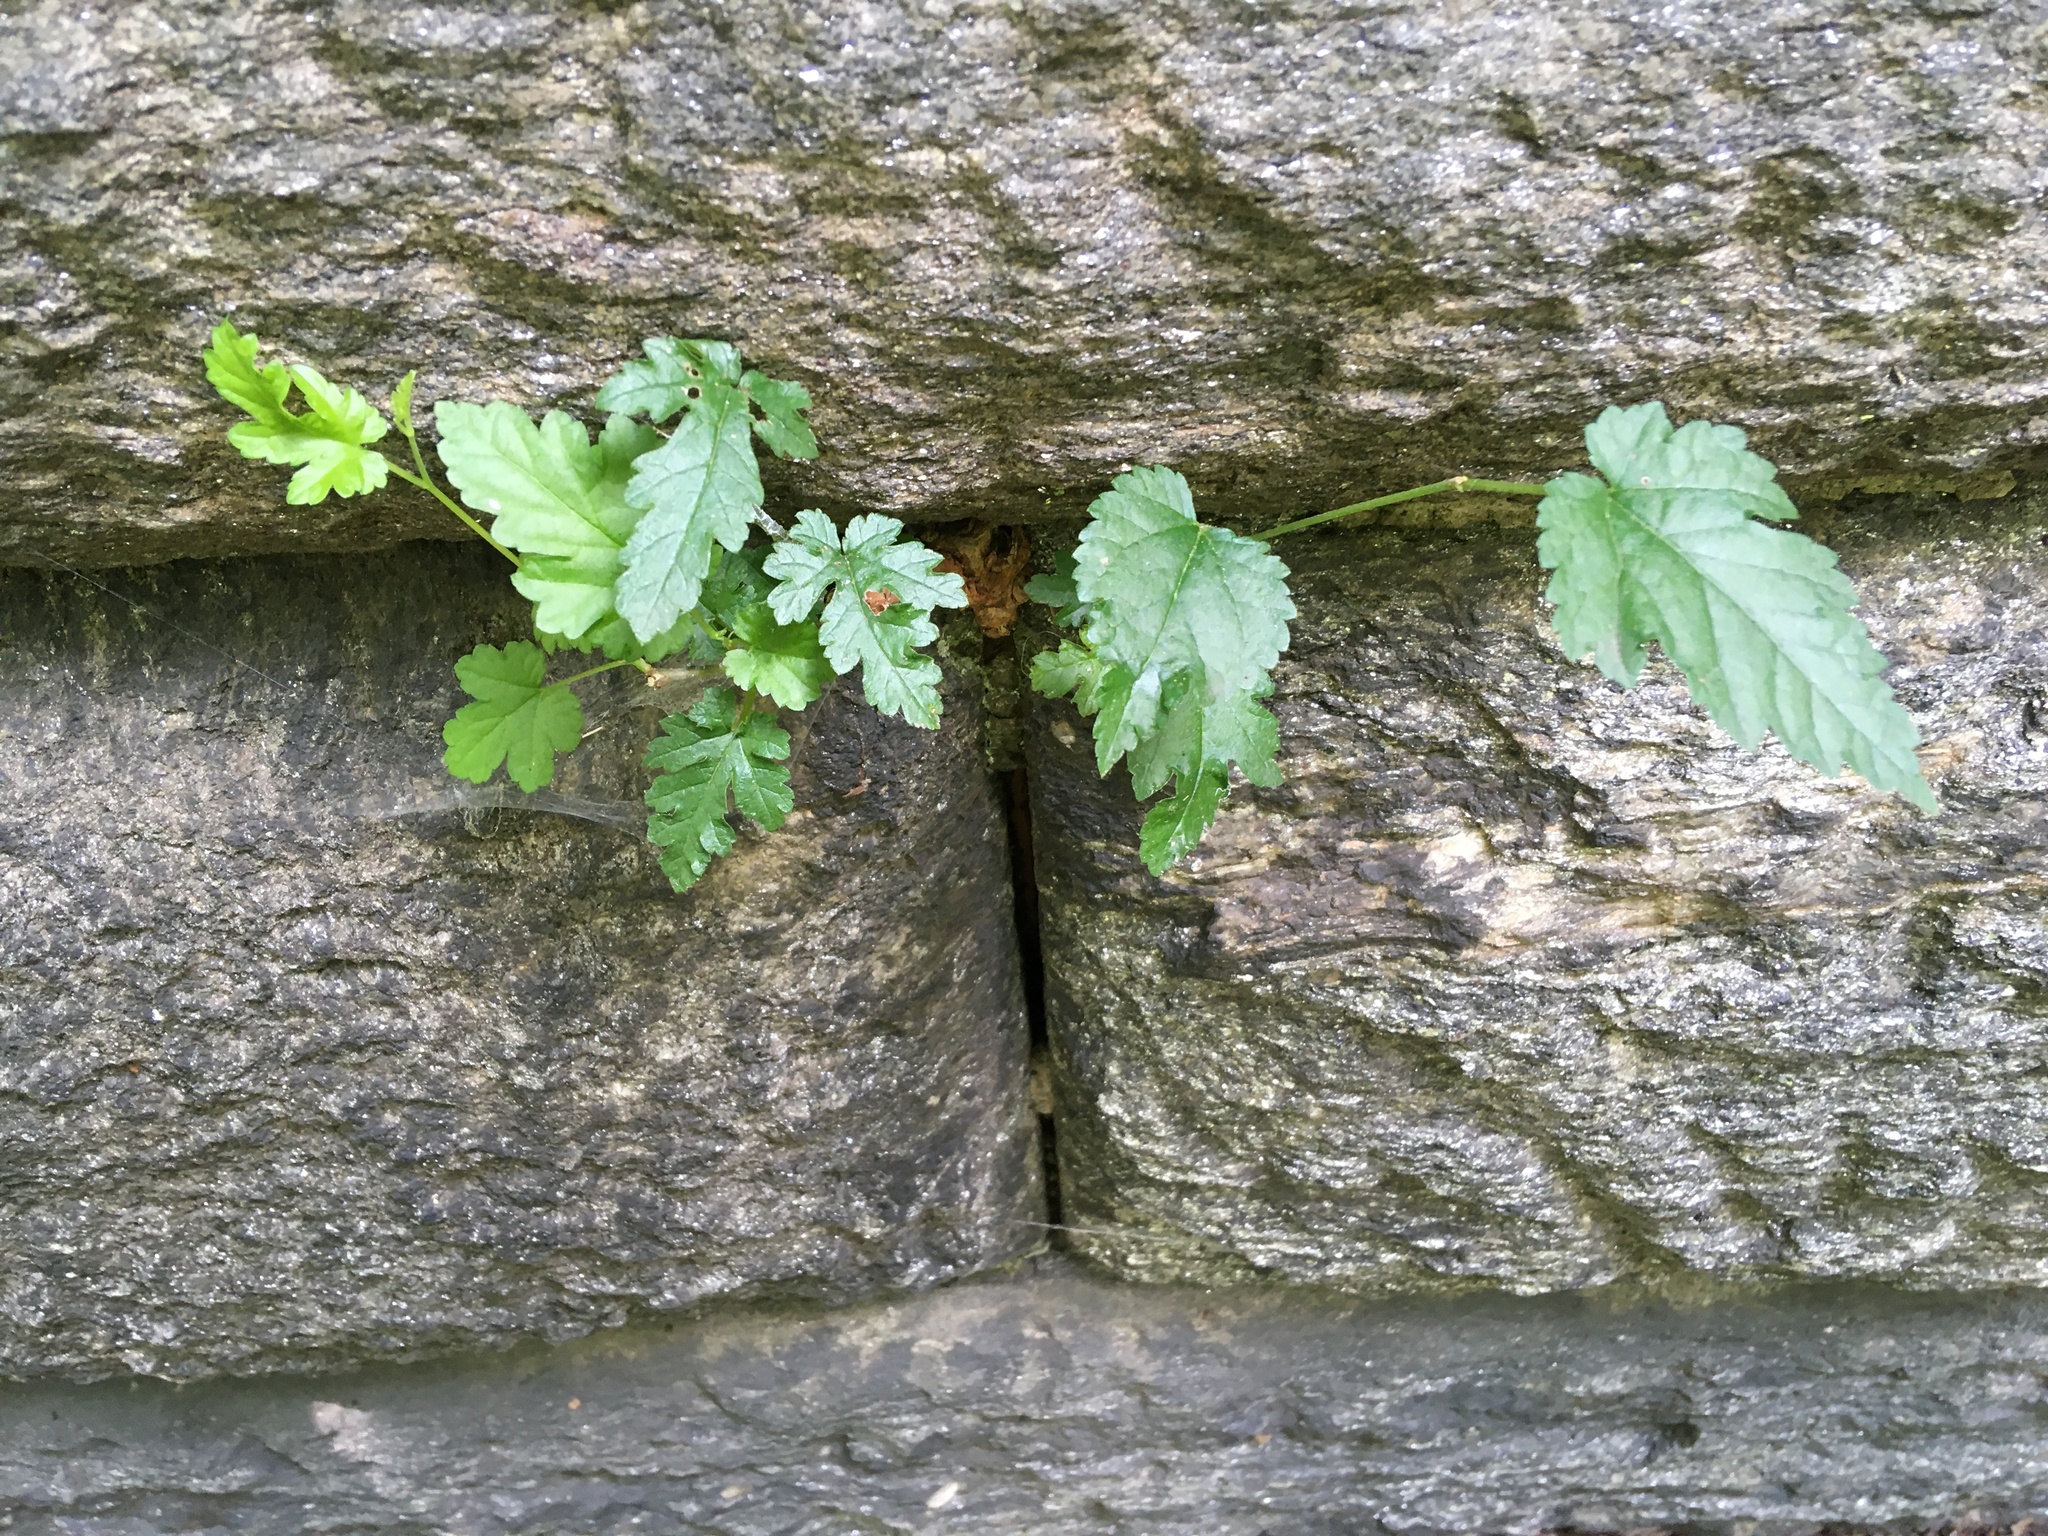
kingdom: Plantae
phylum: Tracheophyta
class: Magnoliopsida
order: Rosales
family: Moraceae
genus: Morus
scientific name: Morus alba
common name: White mulberry
